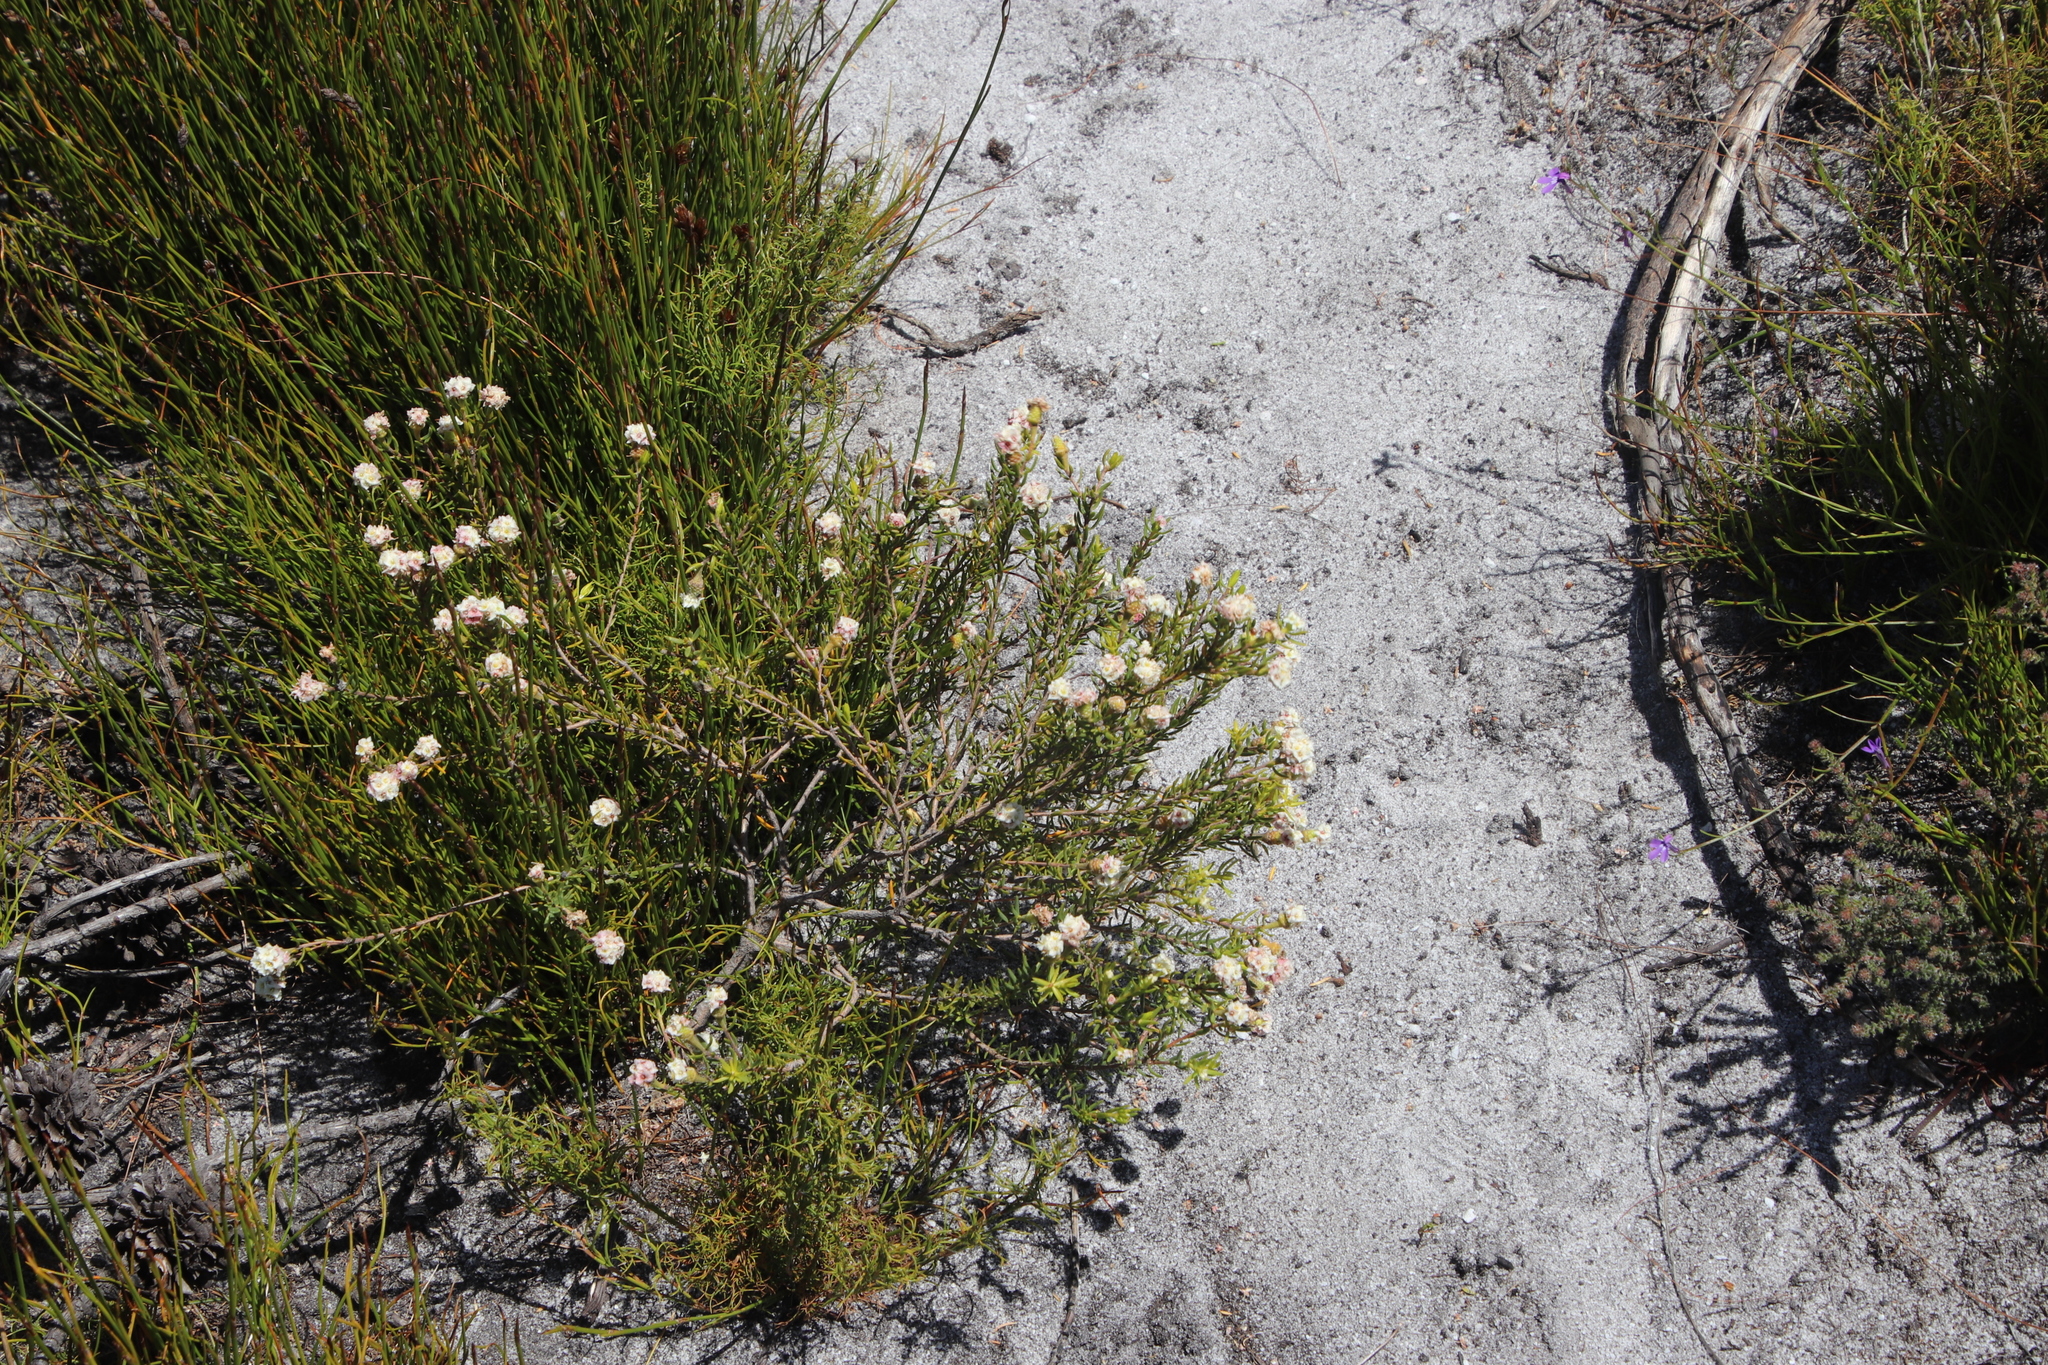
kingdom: Plantae
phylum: Tracheophyta
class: Magnoliopsida
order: Malvales
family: Thymelaeaceae
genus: Lachnaea
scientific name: Lachnaea densiflora
